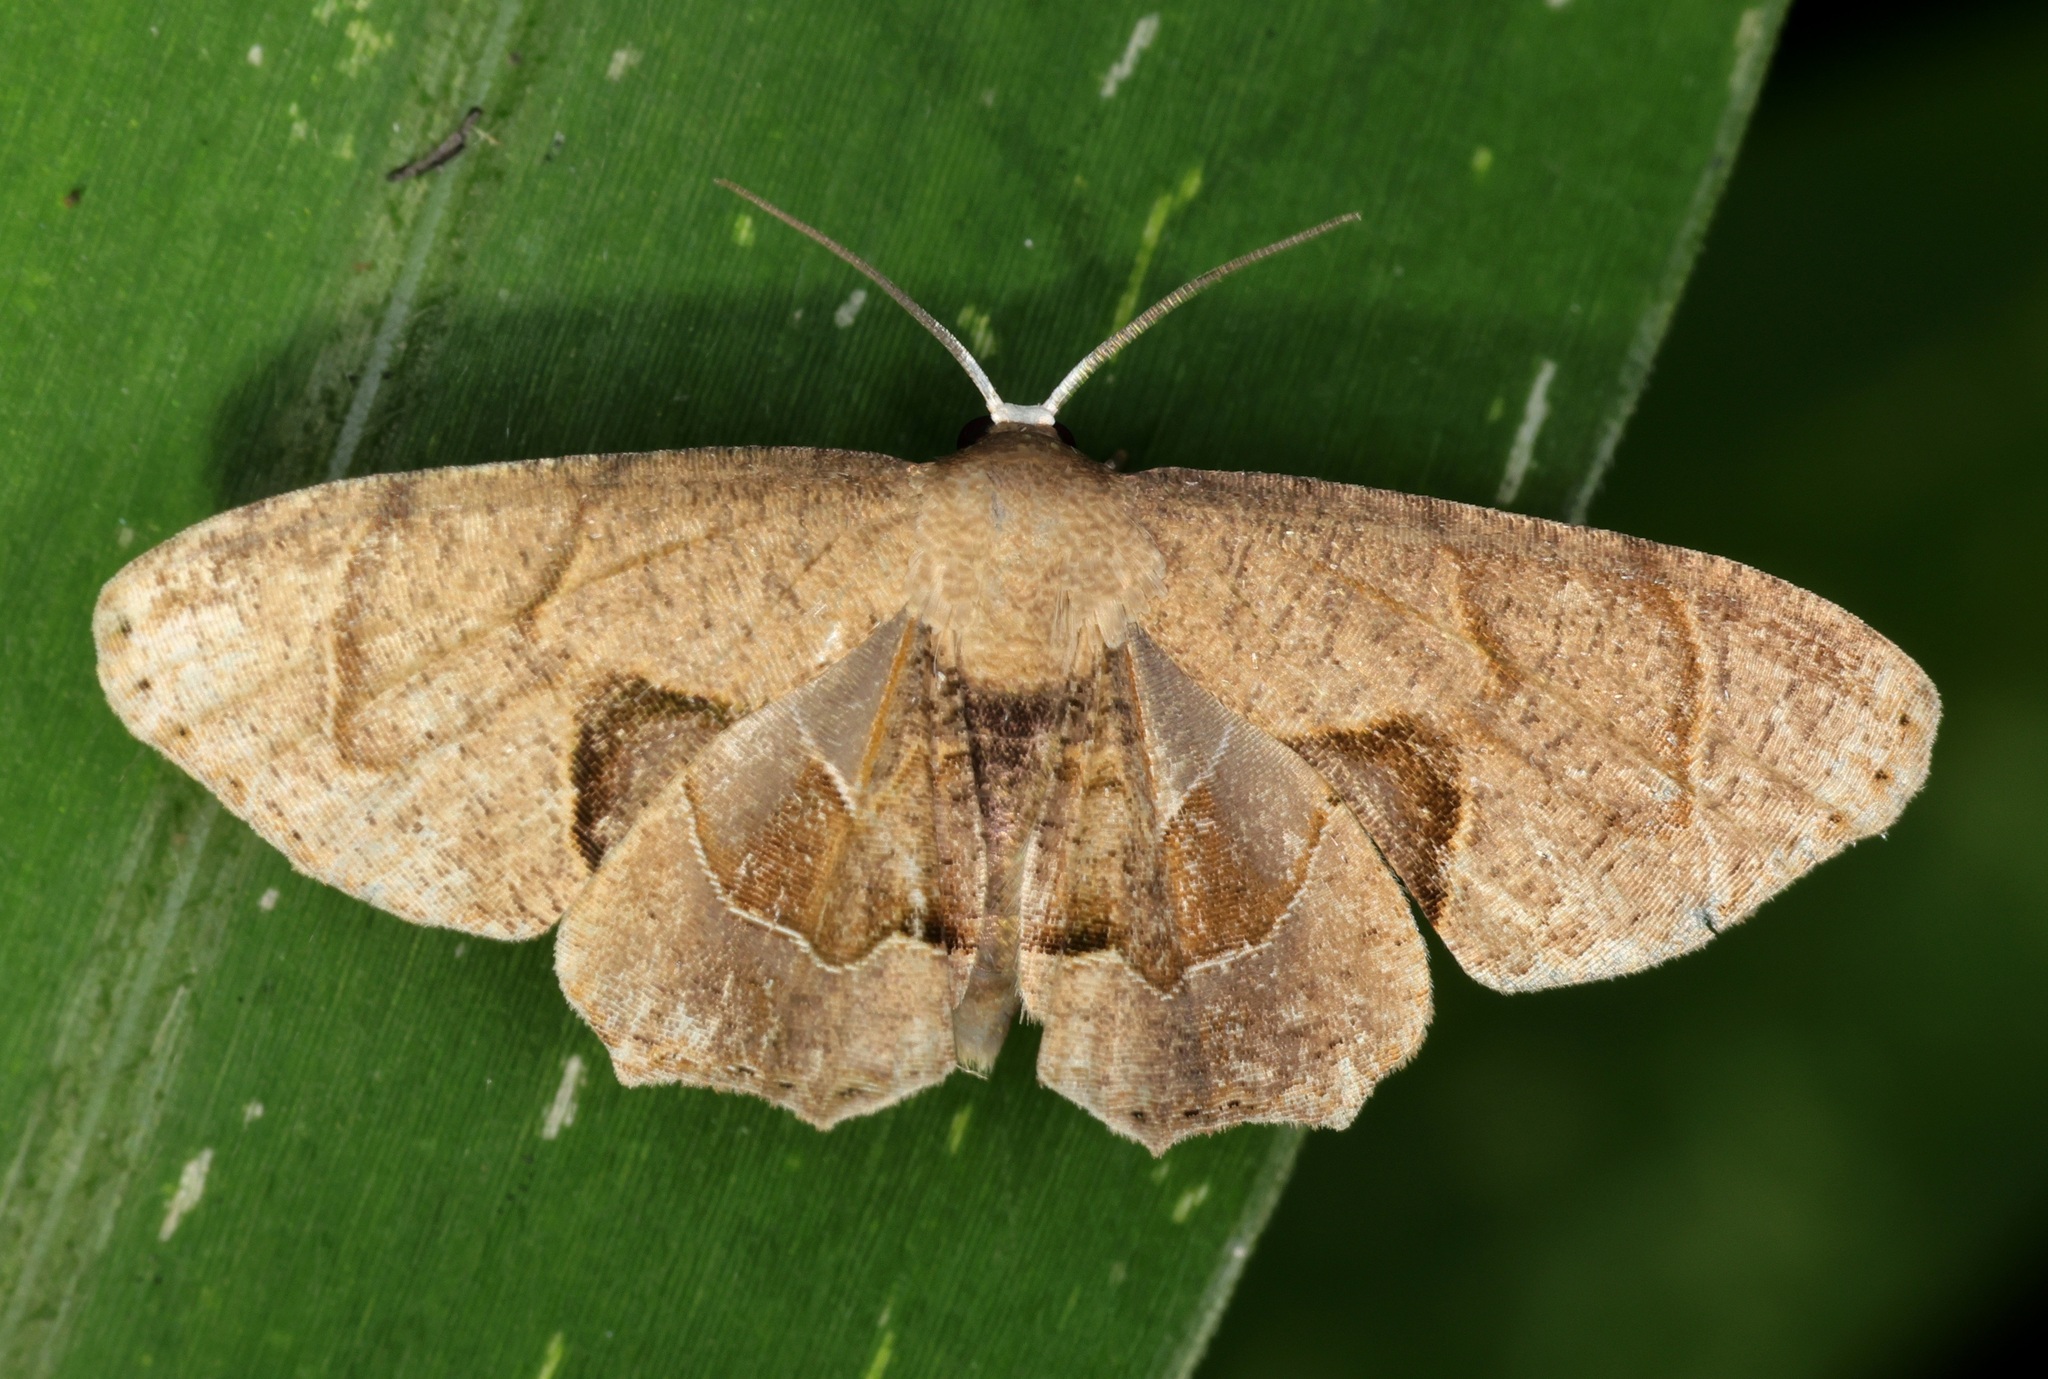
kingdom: Animalia
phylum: Arthropoda
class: Insecta
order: Lepidoptera
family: Uraniidae
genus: Phazaca
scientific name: Phazaca leucocera
